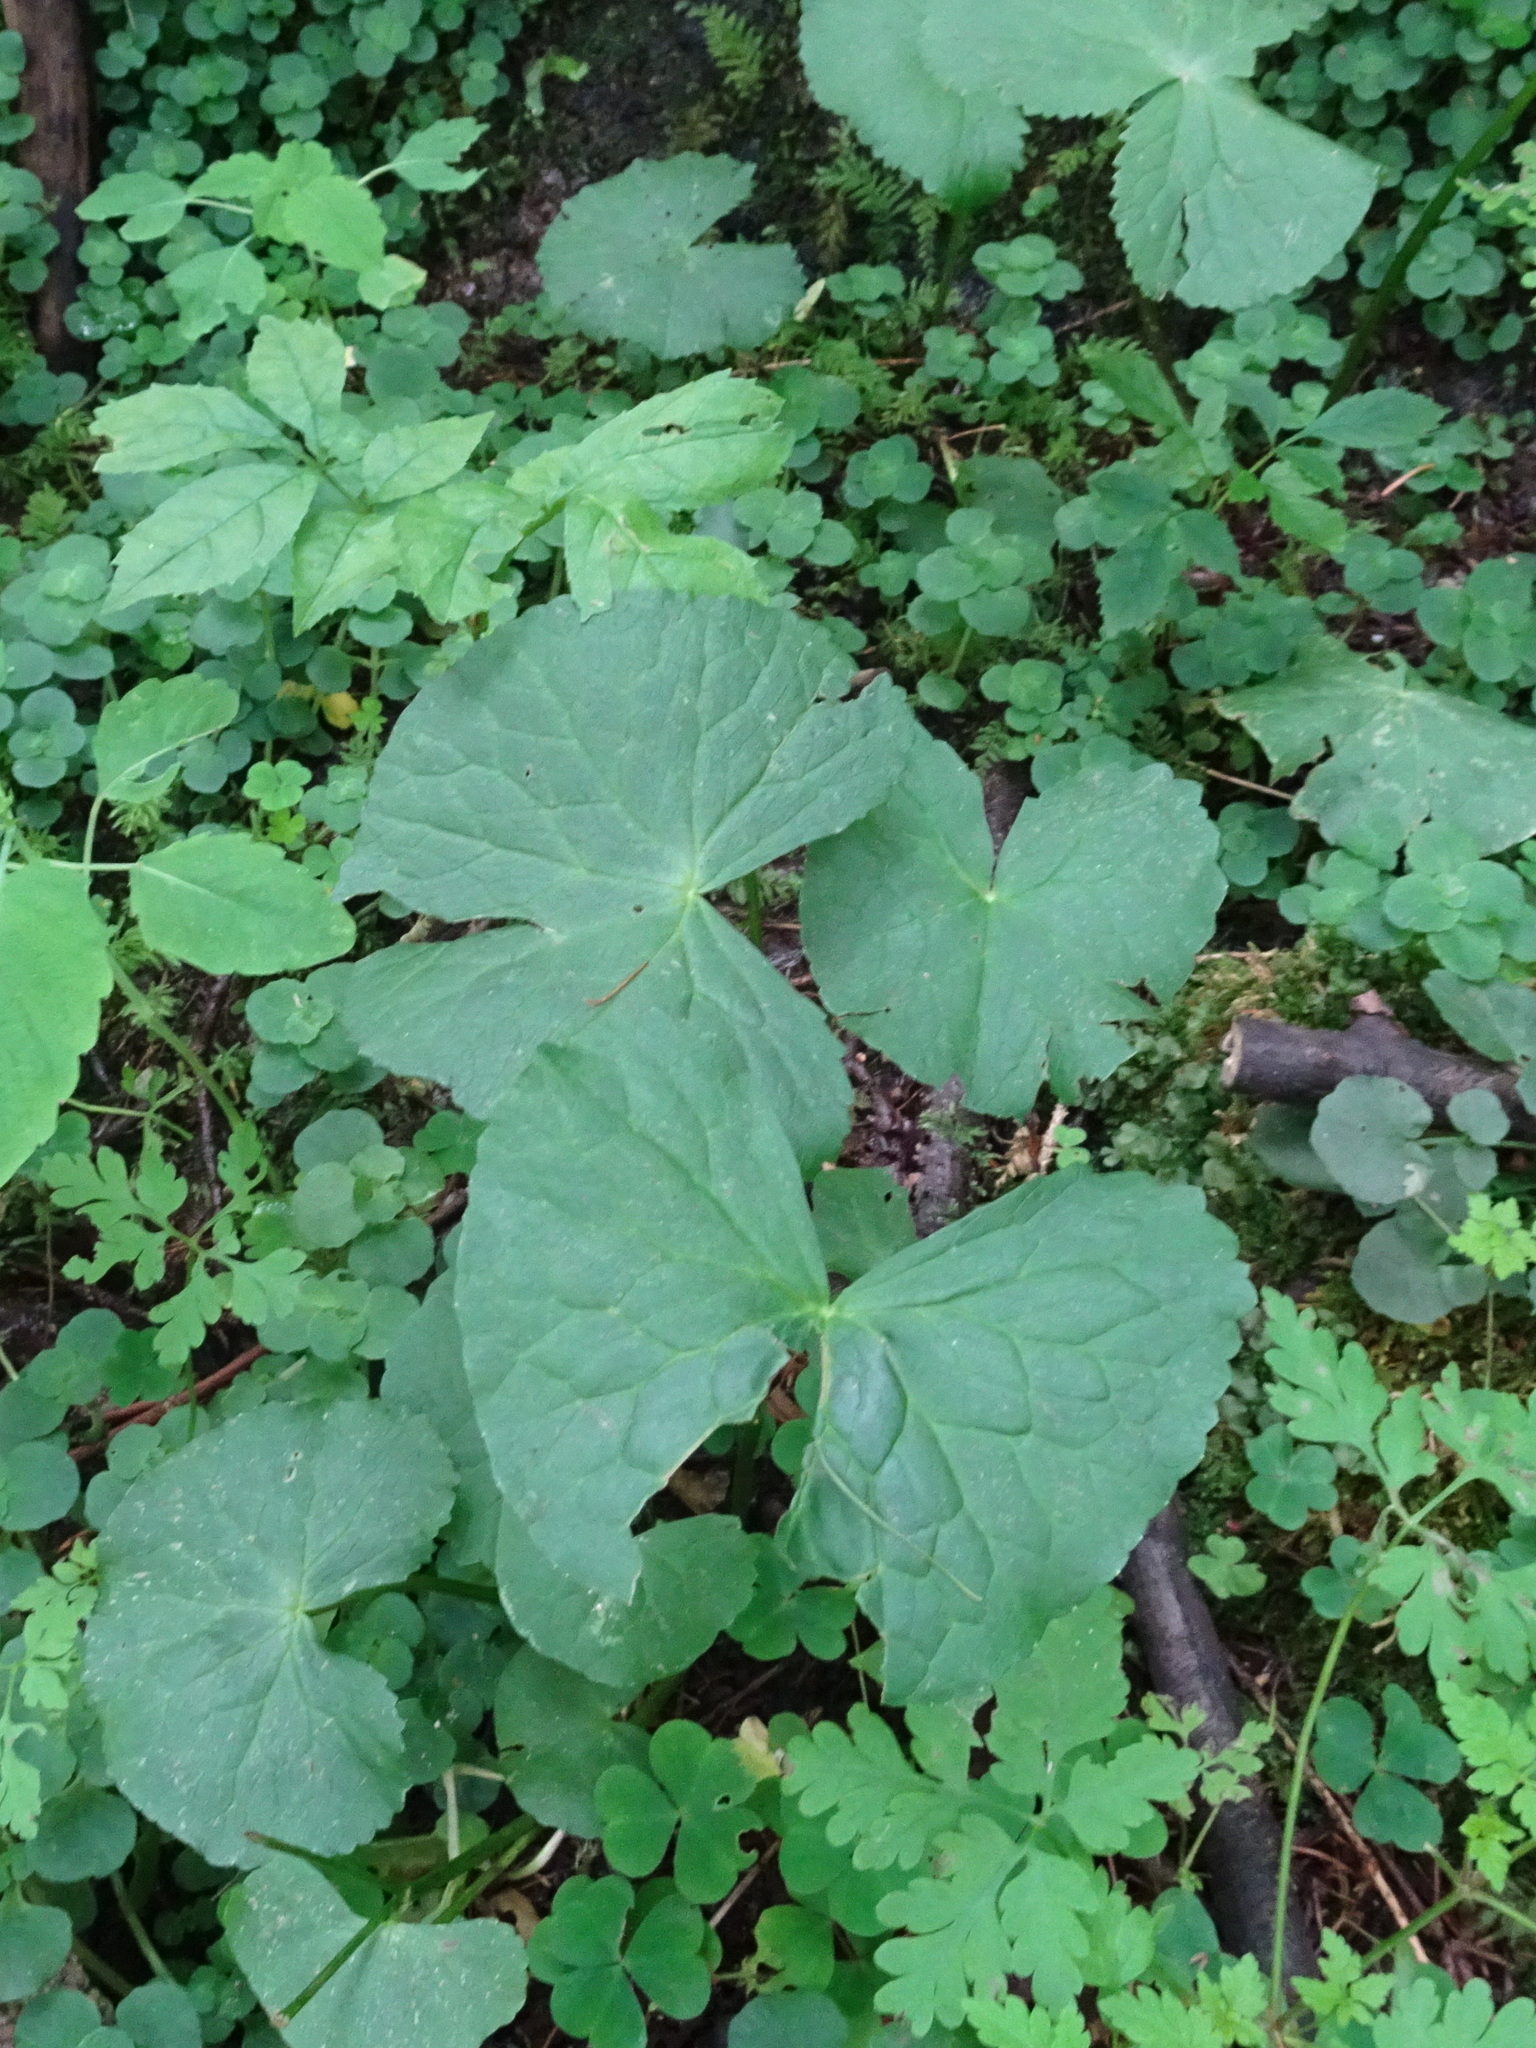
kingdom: Plantae
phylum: Tracheophyta
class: Magnoliopsida
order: Ranunculales
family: Ranunculaceae
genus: Caltha
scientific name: Caltha palustris
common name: Marsh marigold
